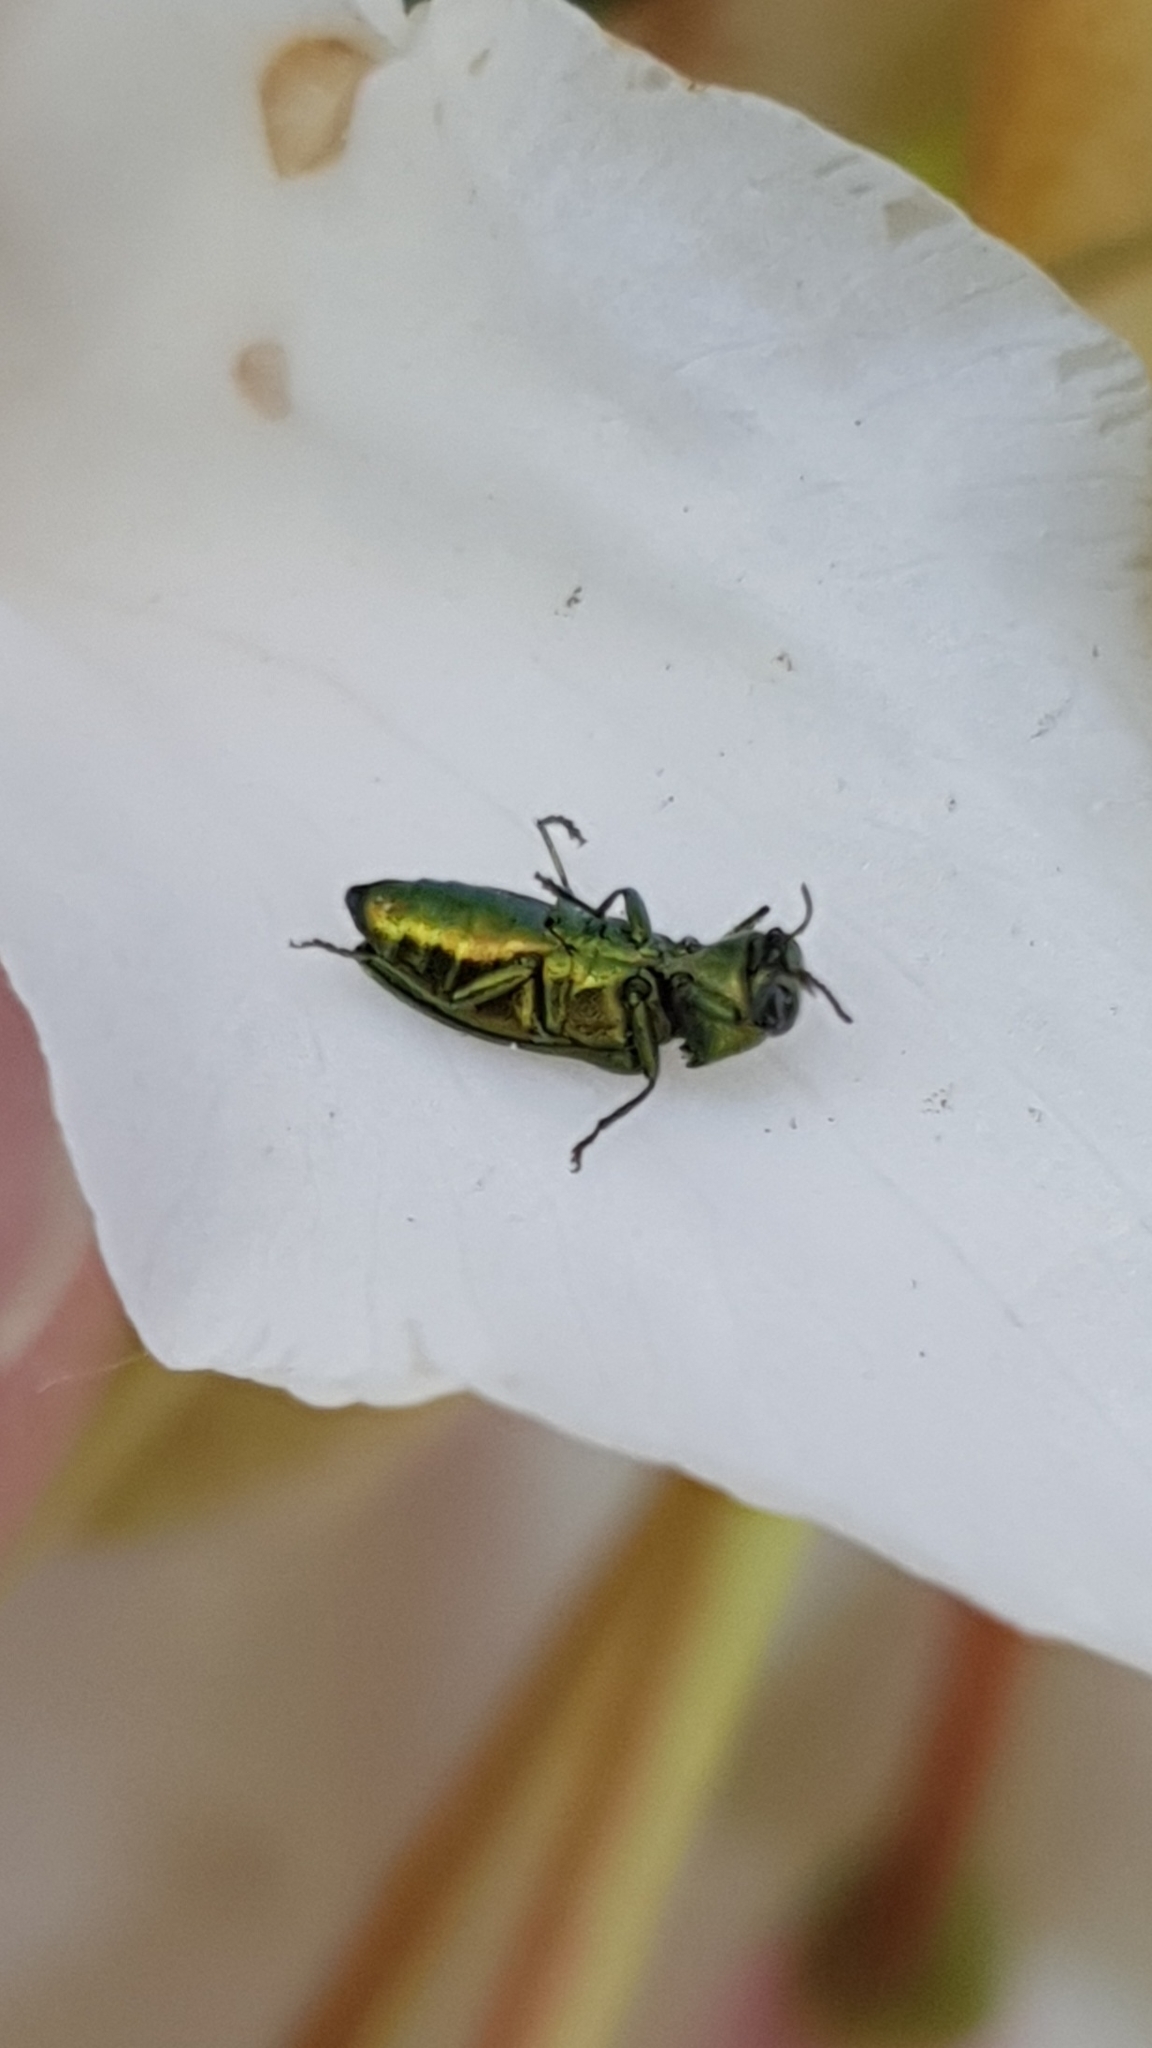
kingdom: Animalia
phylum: Arthropoda
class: Insecta
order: Coleoptera
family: Buprestidae
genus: Anthaxia
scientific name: Anthaxia nitidula
